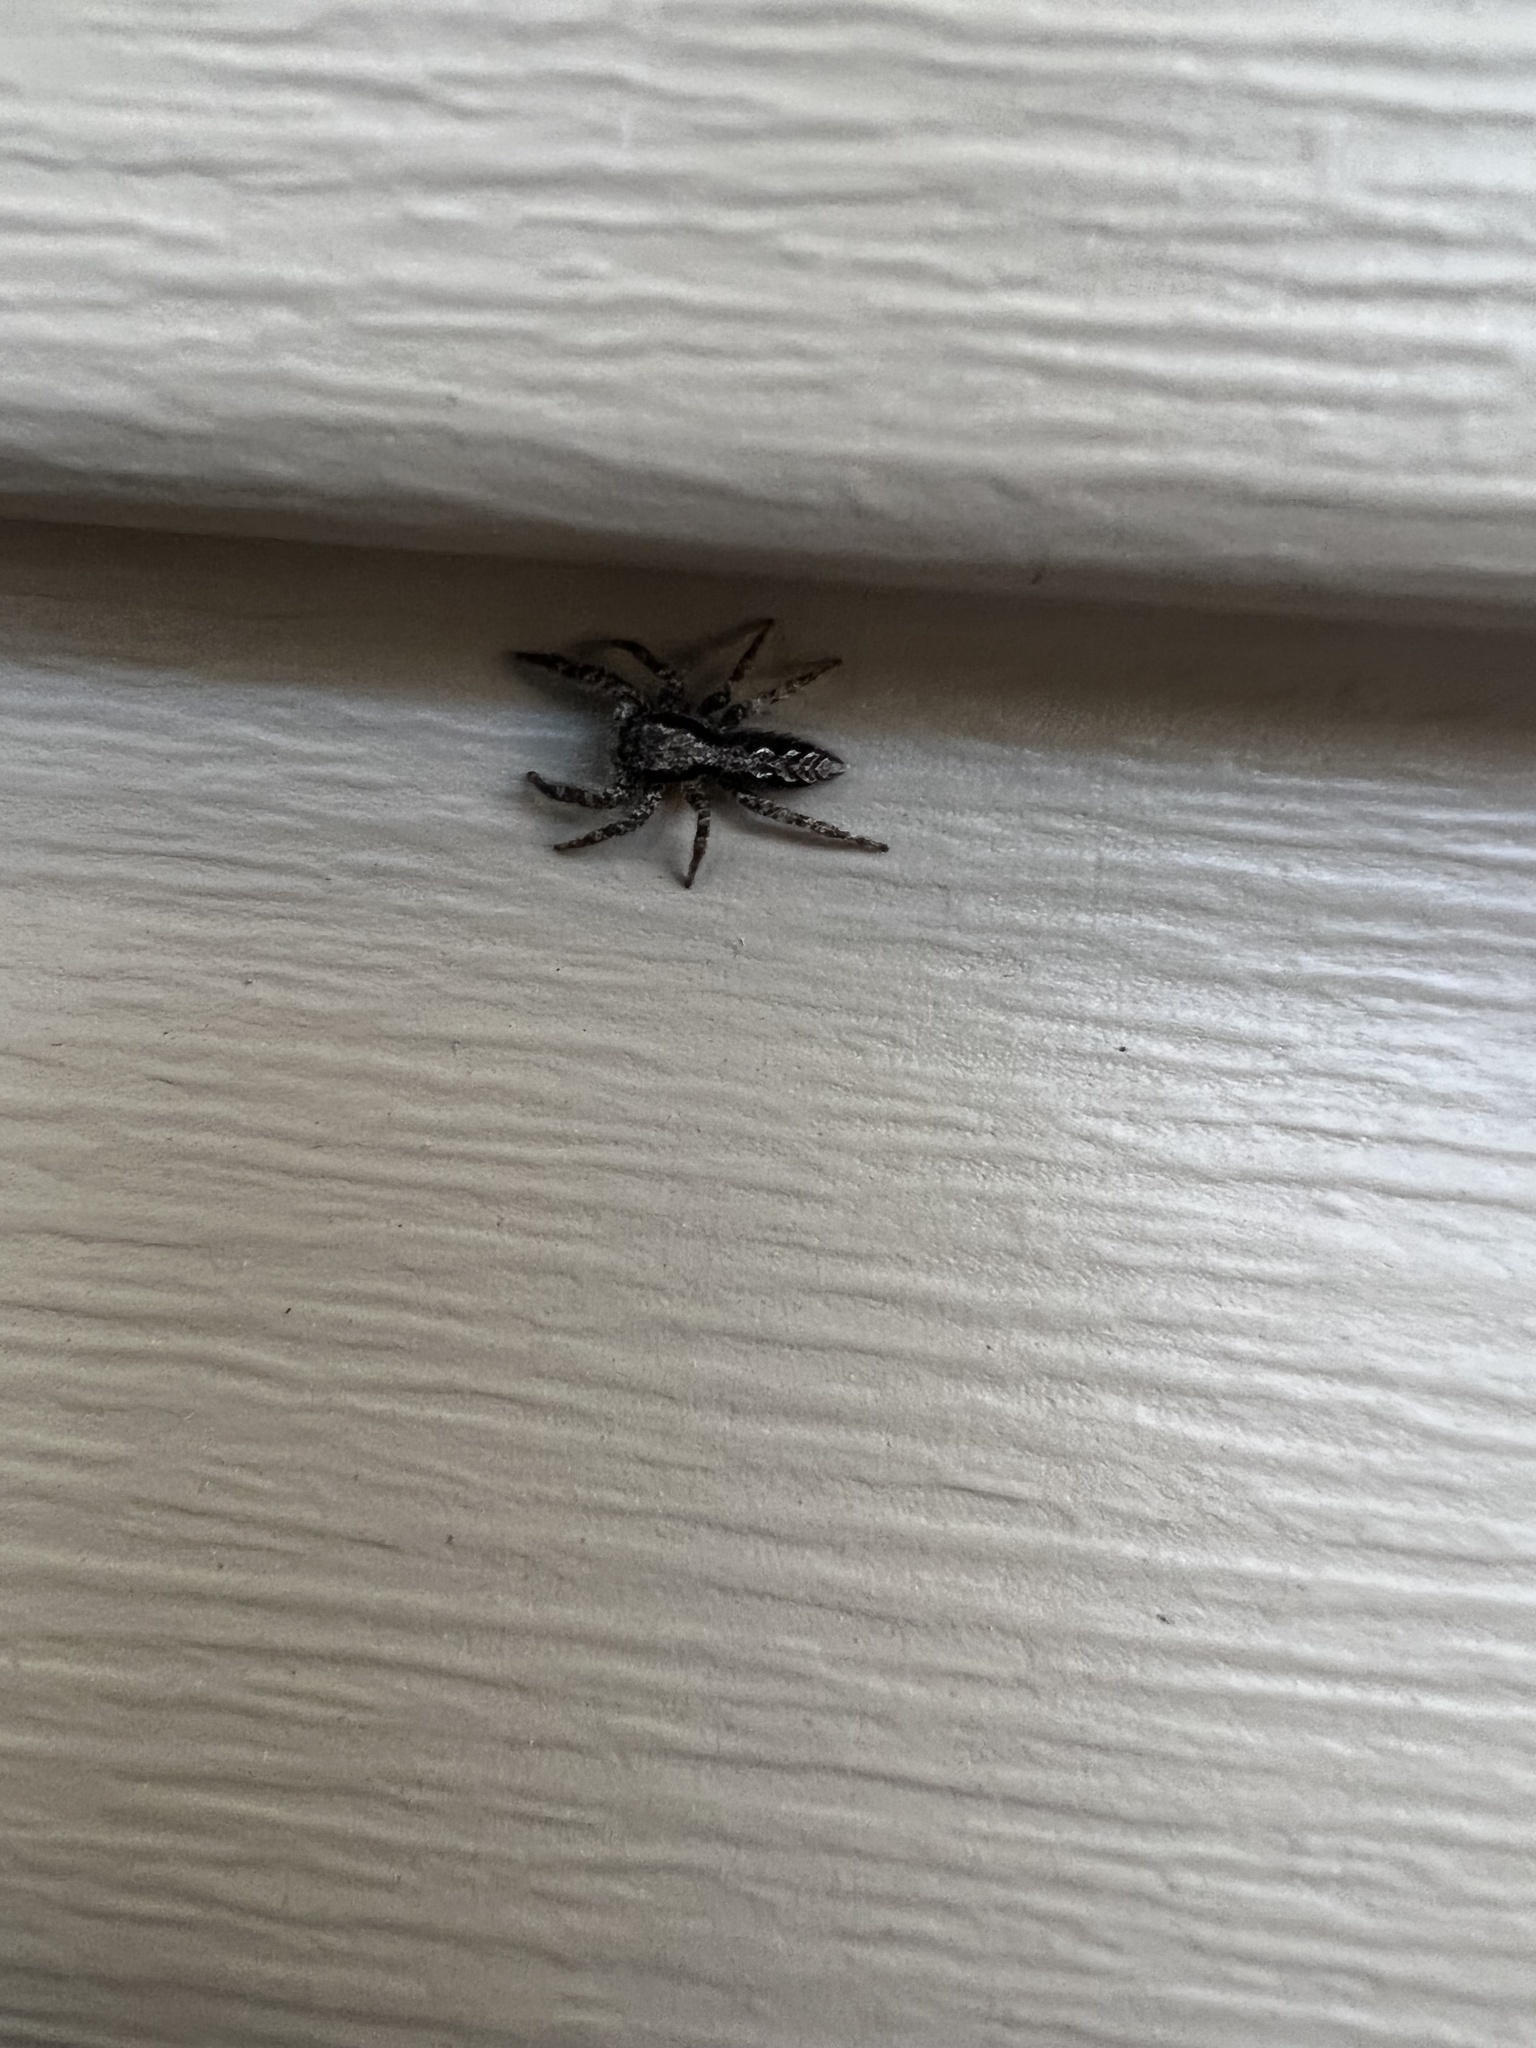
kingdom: Animalia
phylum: Arthropoda
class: Arachnida
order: Araneae
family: Salticidae
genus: Platycryptus
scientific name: Platycryptus californicus
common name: Jumping spiders
